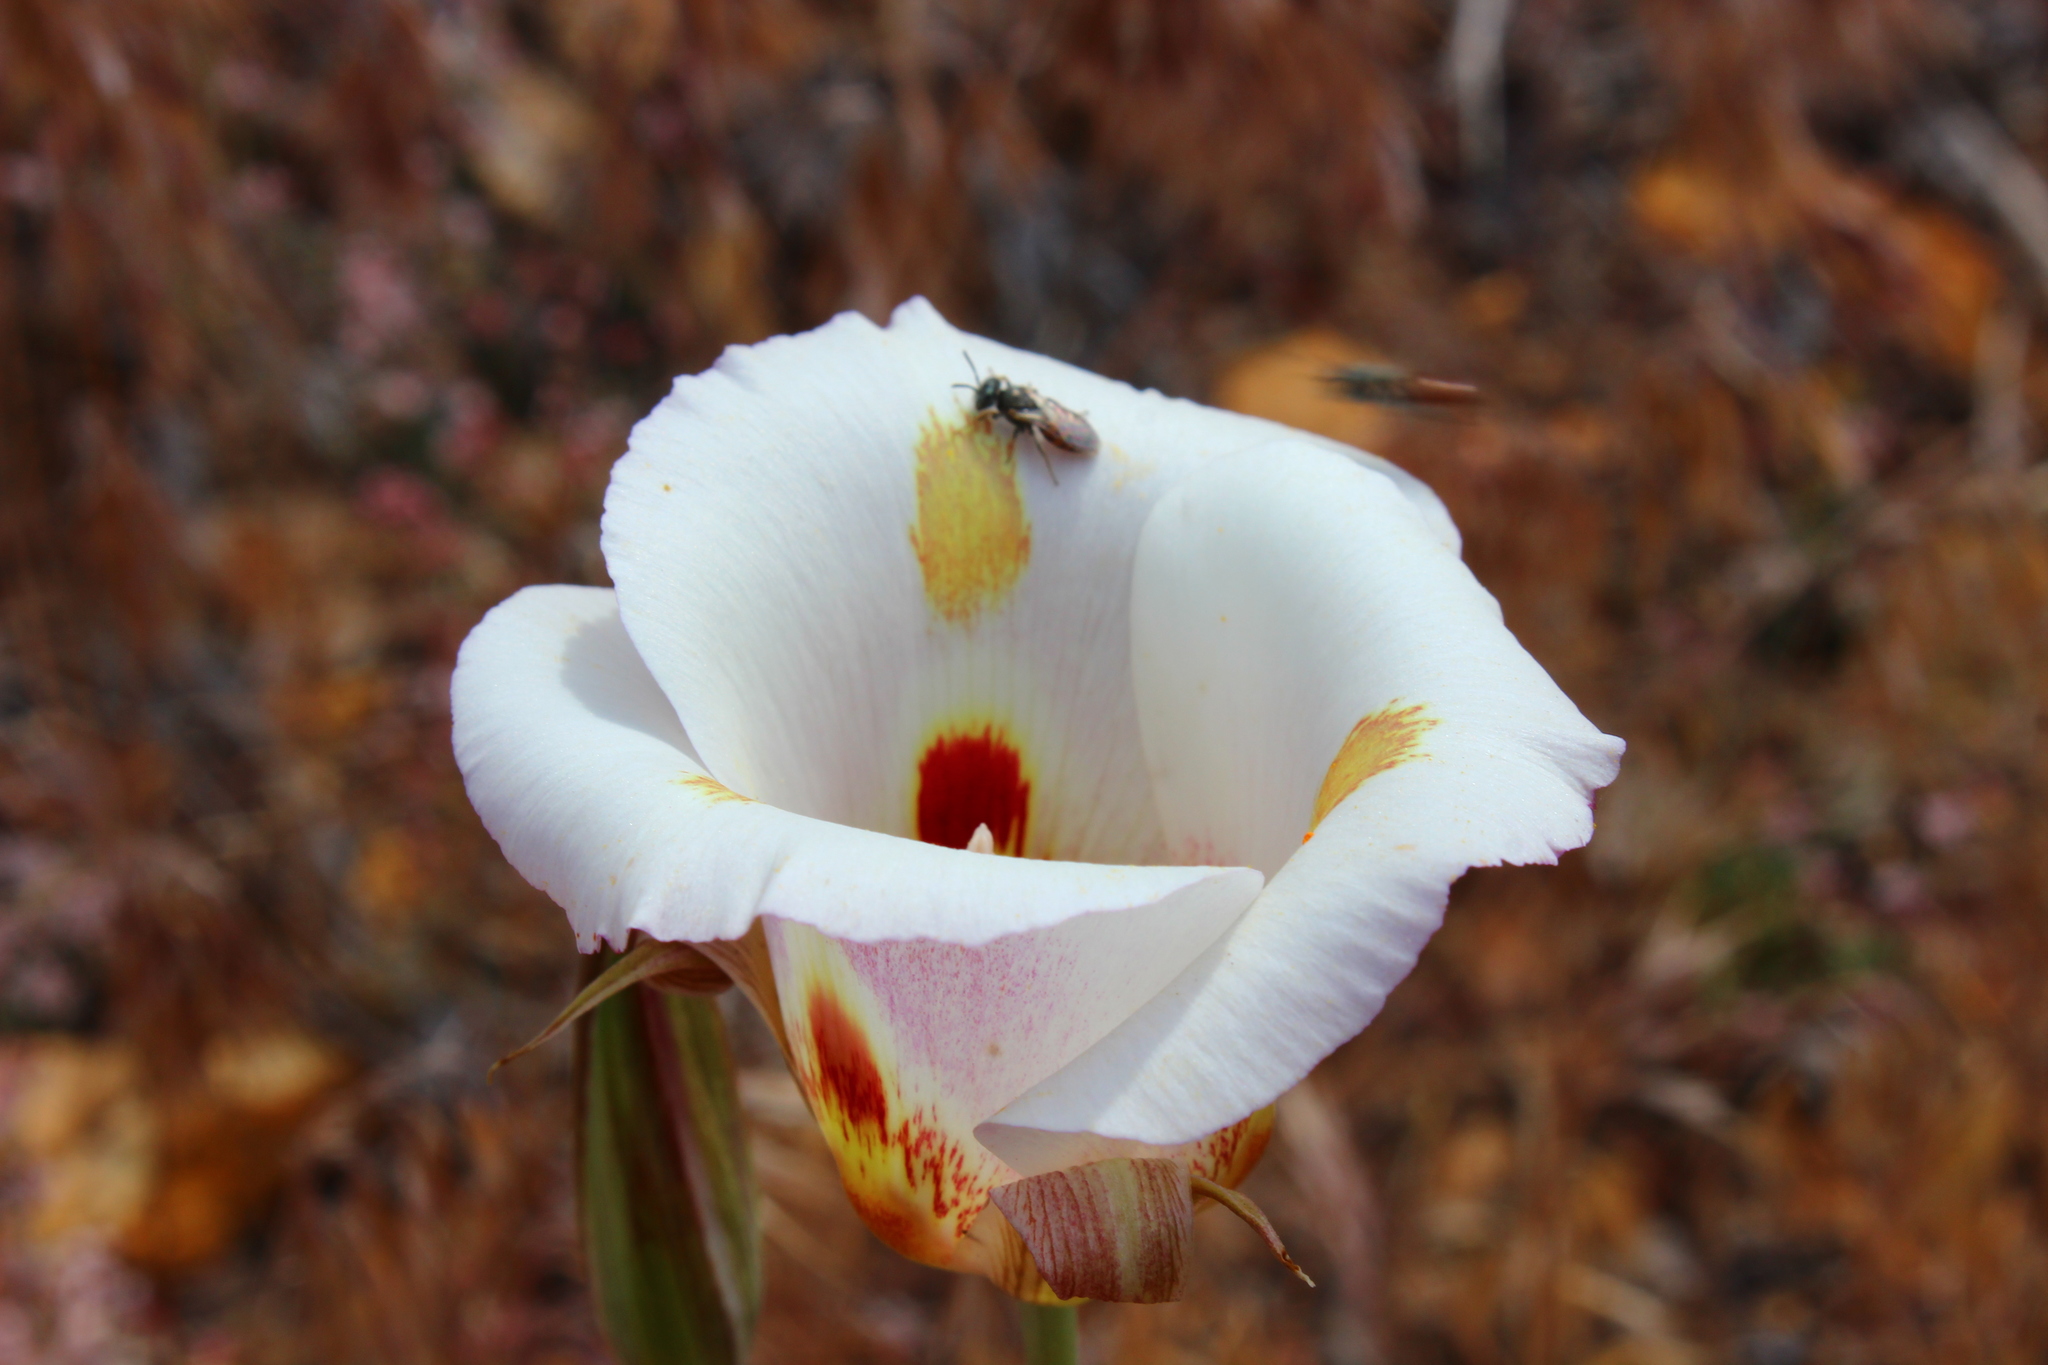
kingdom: Plantae
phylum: Tracheophyta
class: Liliopsida
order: Liliales
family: Liliaceae
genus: Calochortus
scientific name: Calochortus venustus
